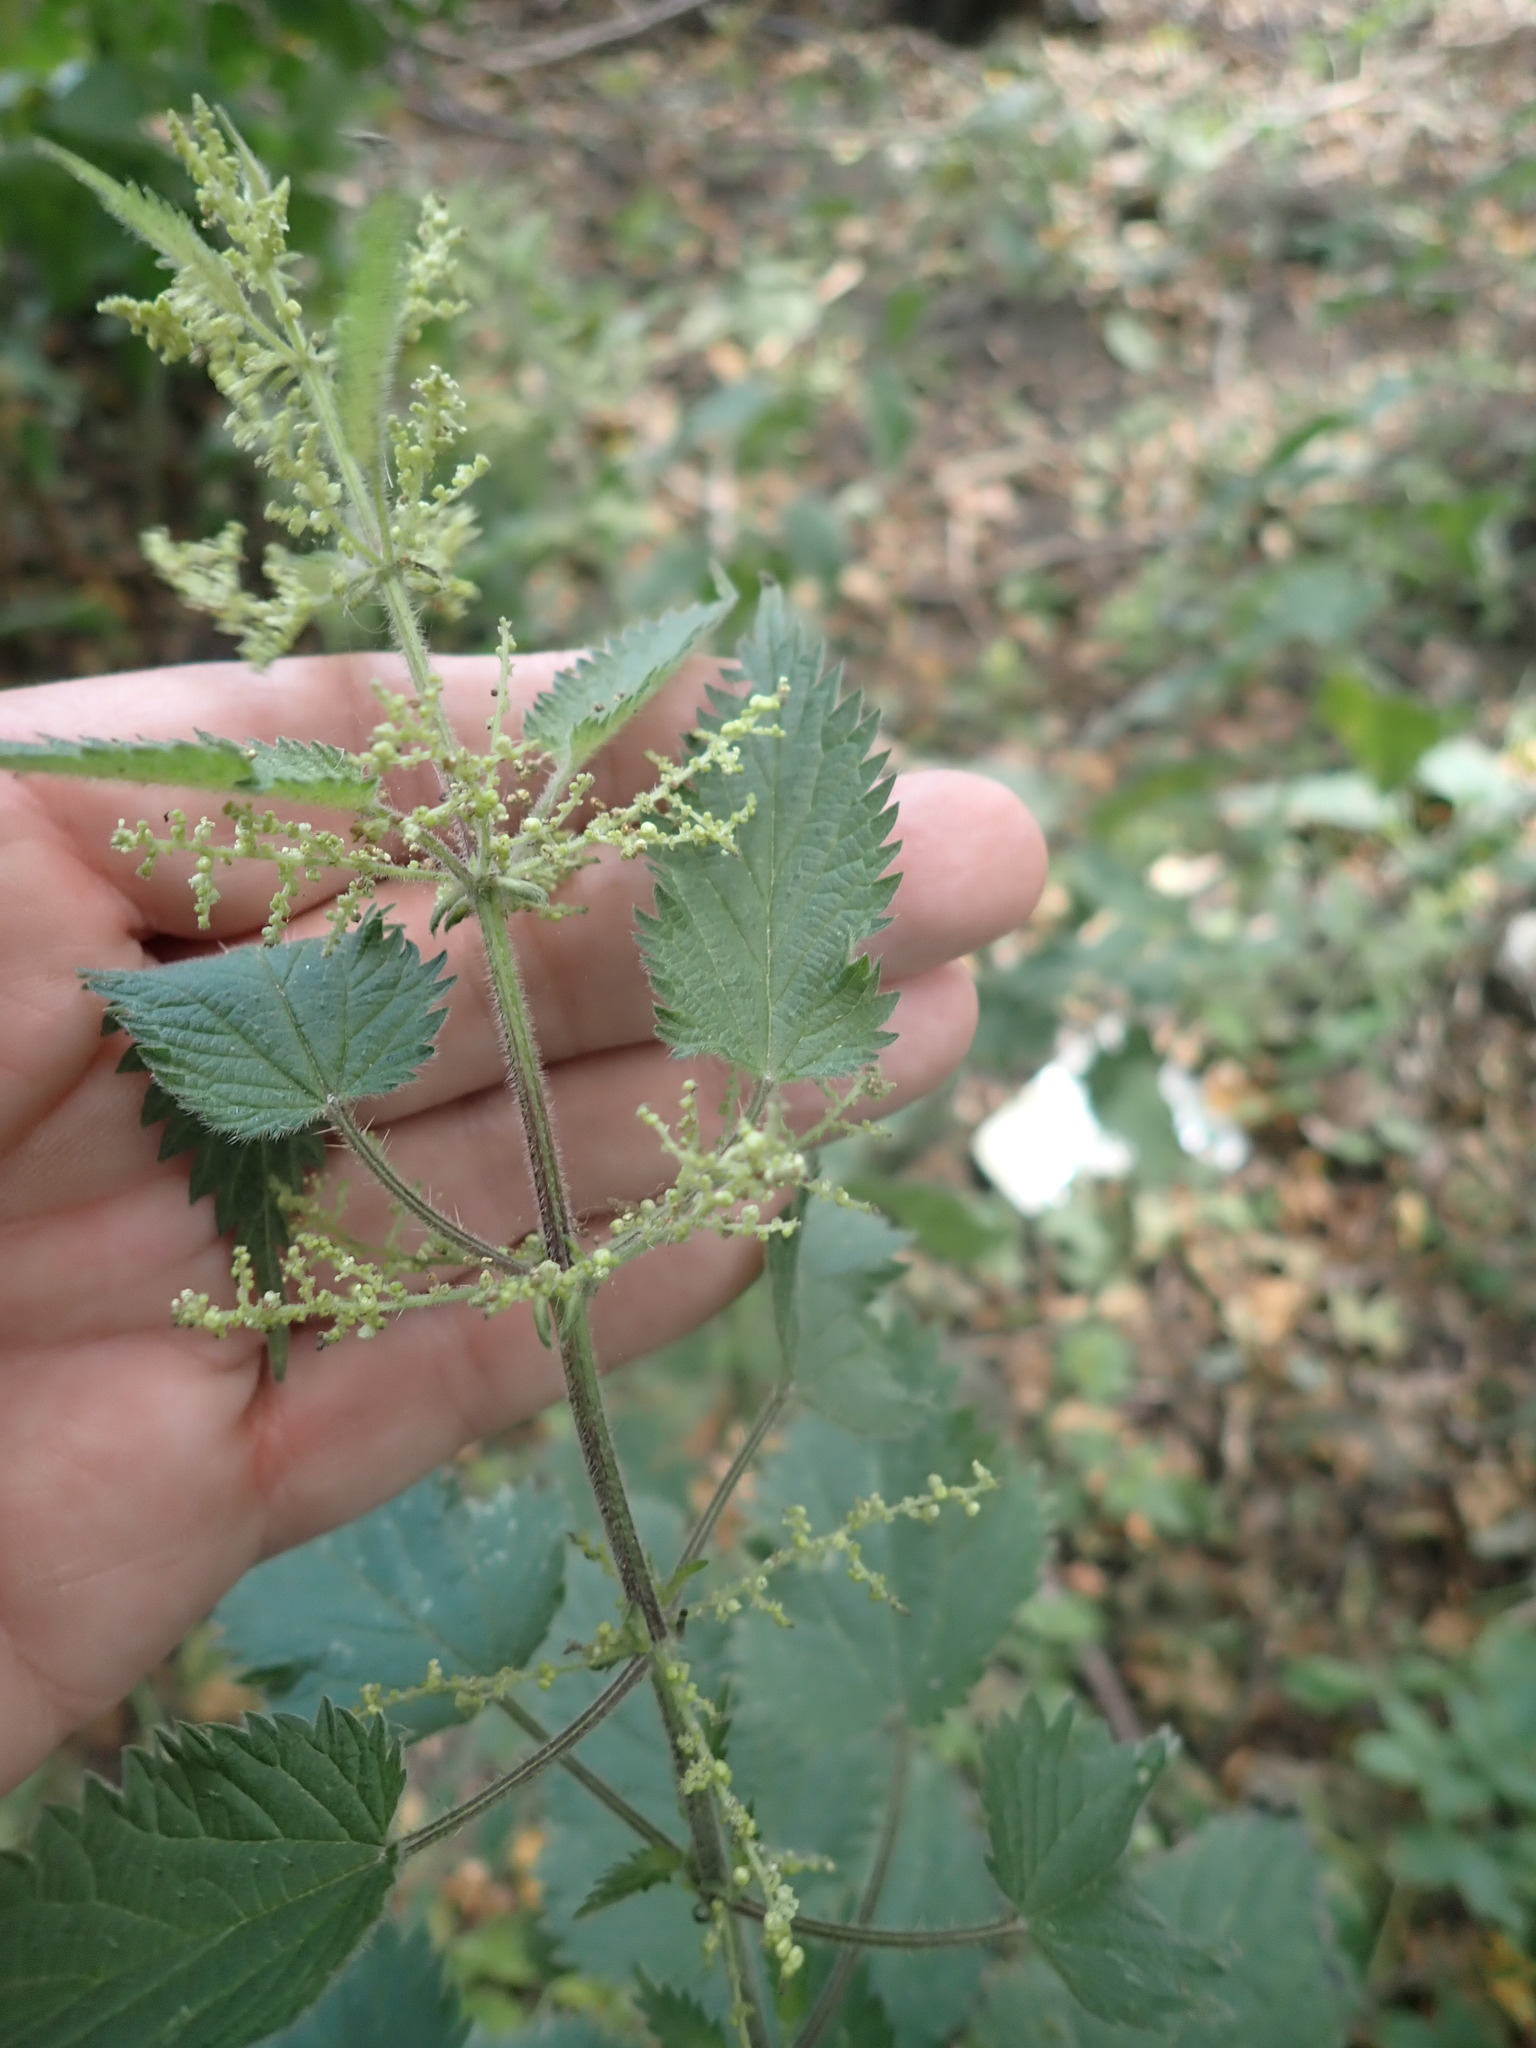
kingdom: Plantae
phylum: Tracheophyta
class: Magnoliopsida
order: Rosales
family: Urticaceae
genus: Urtica
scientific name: Urtica dioica
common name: Common nettle
